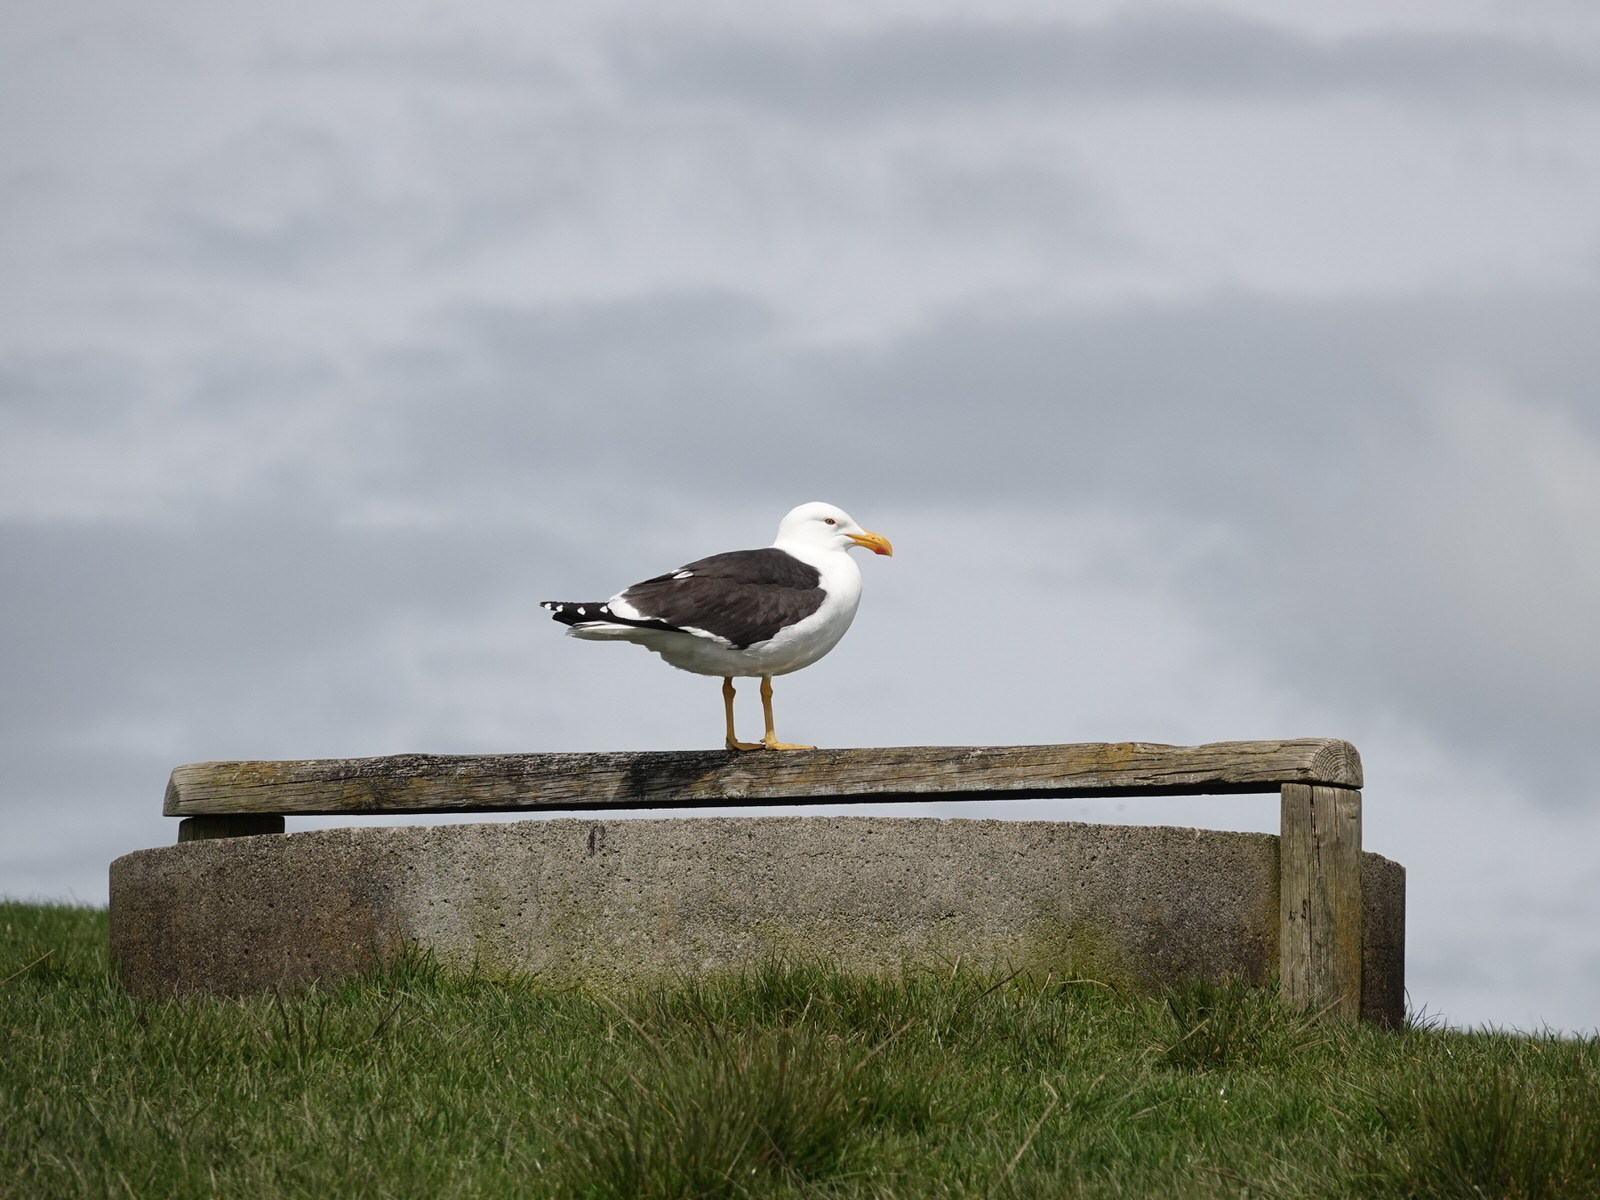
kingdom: Animalia
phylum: Chordata
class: Aves
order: Charadriiformes
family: Laridae
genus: Larus
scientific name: Larus dominicanus
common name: Kelp gull
